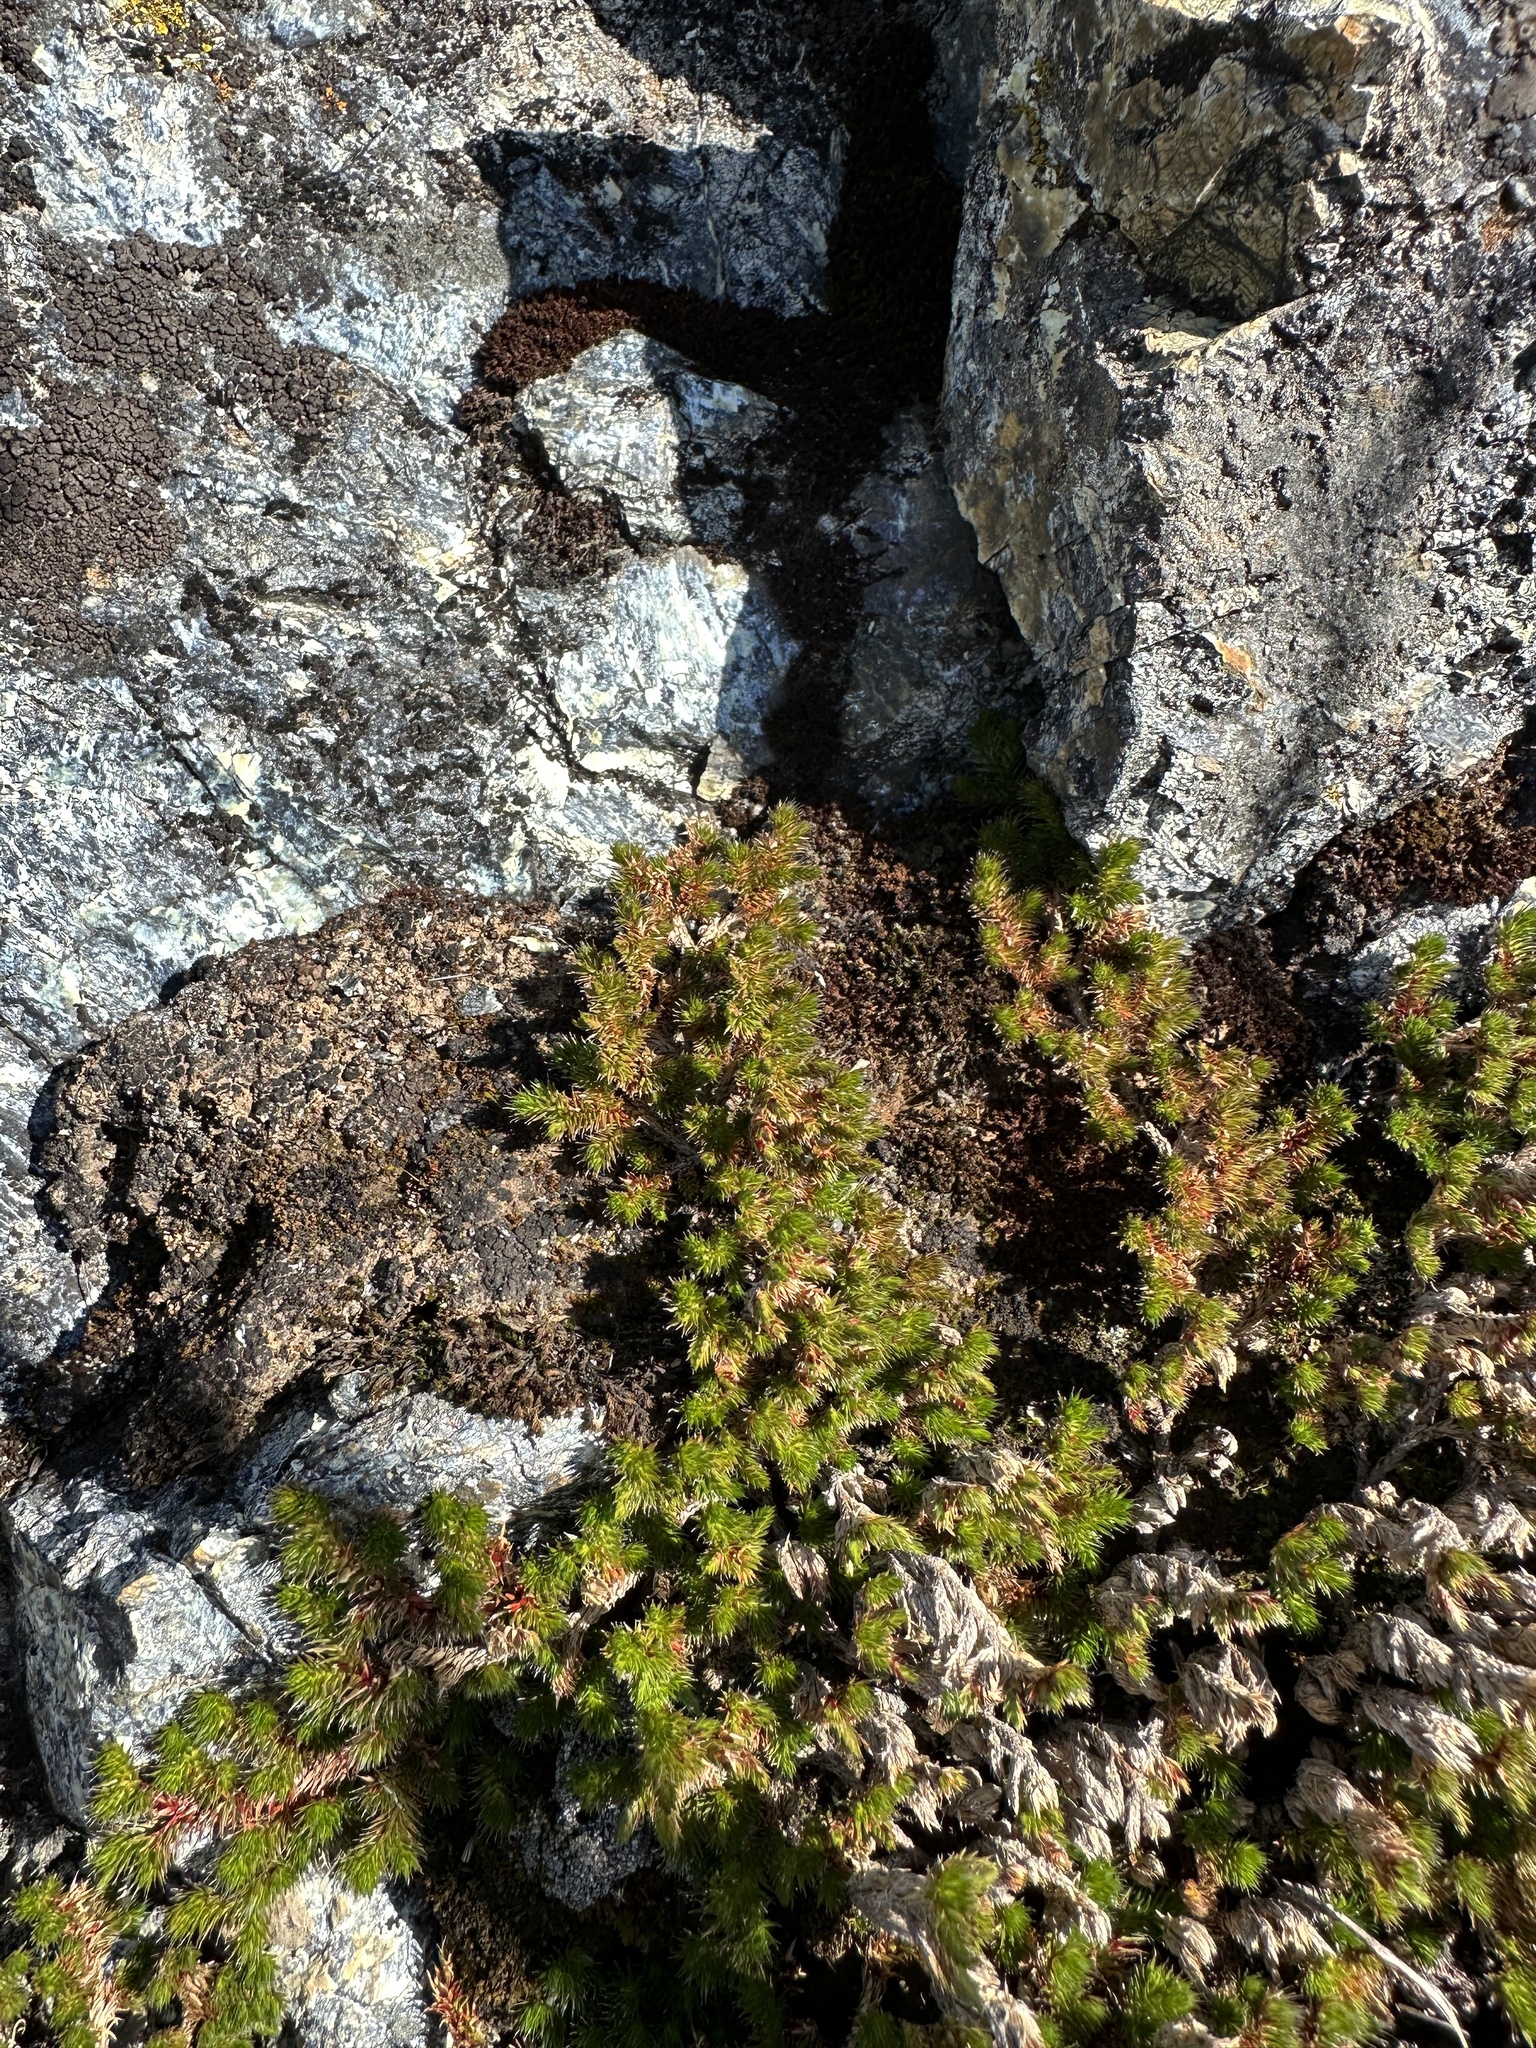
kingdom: Plantae
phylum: Tracheophyta
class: Lycopodiopsida
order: Selaginellales
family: Selaginellaceae
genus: Selaginella
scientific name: Selaginella hansenii
